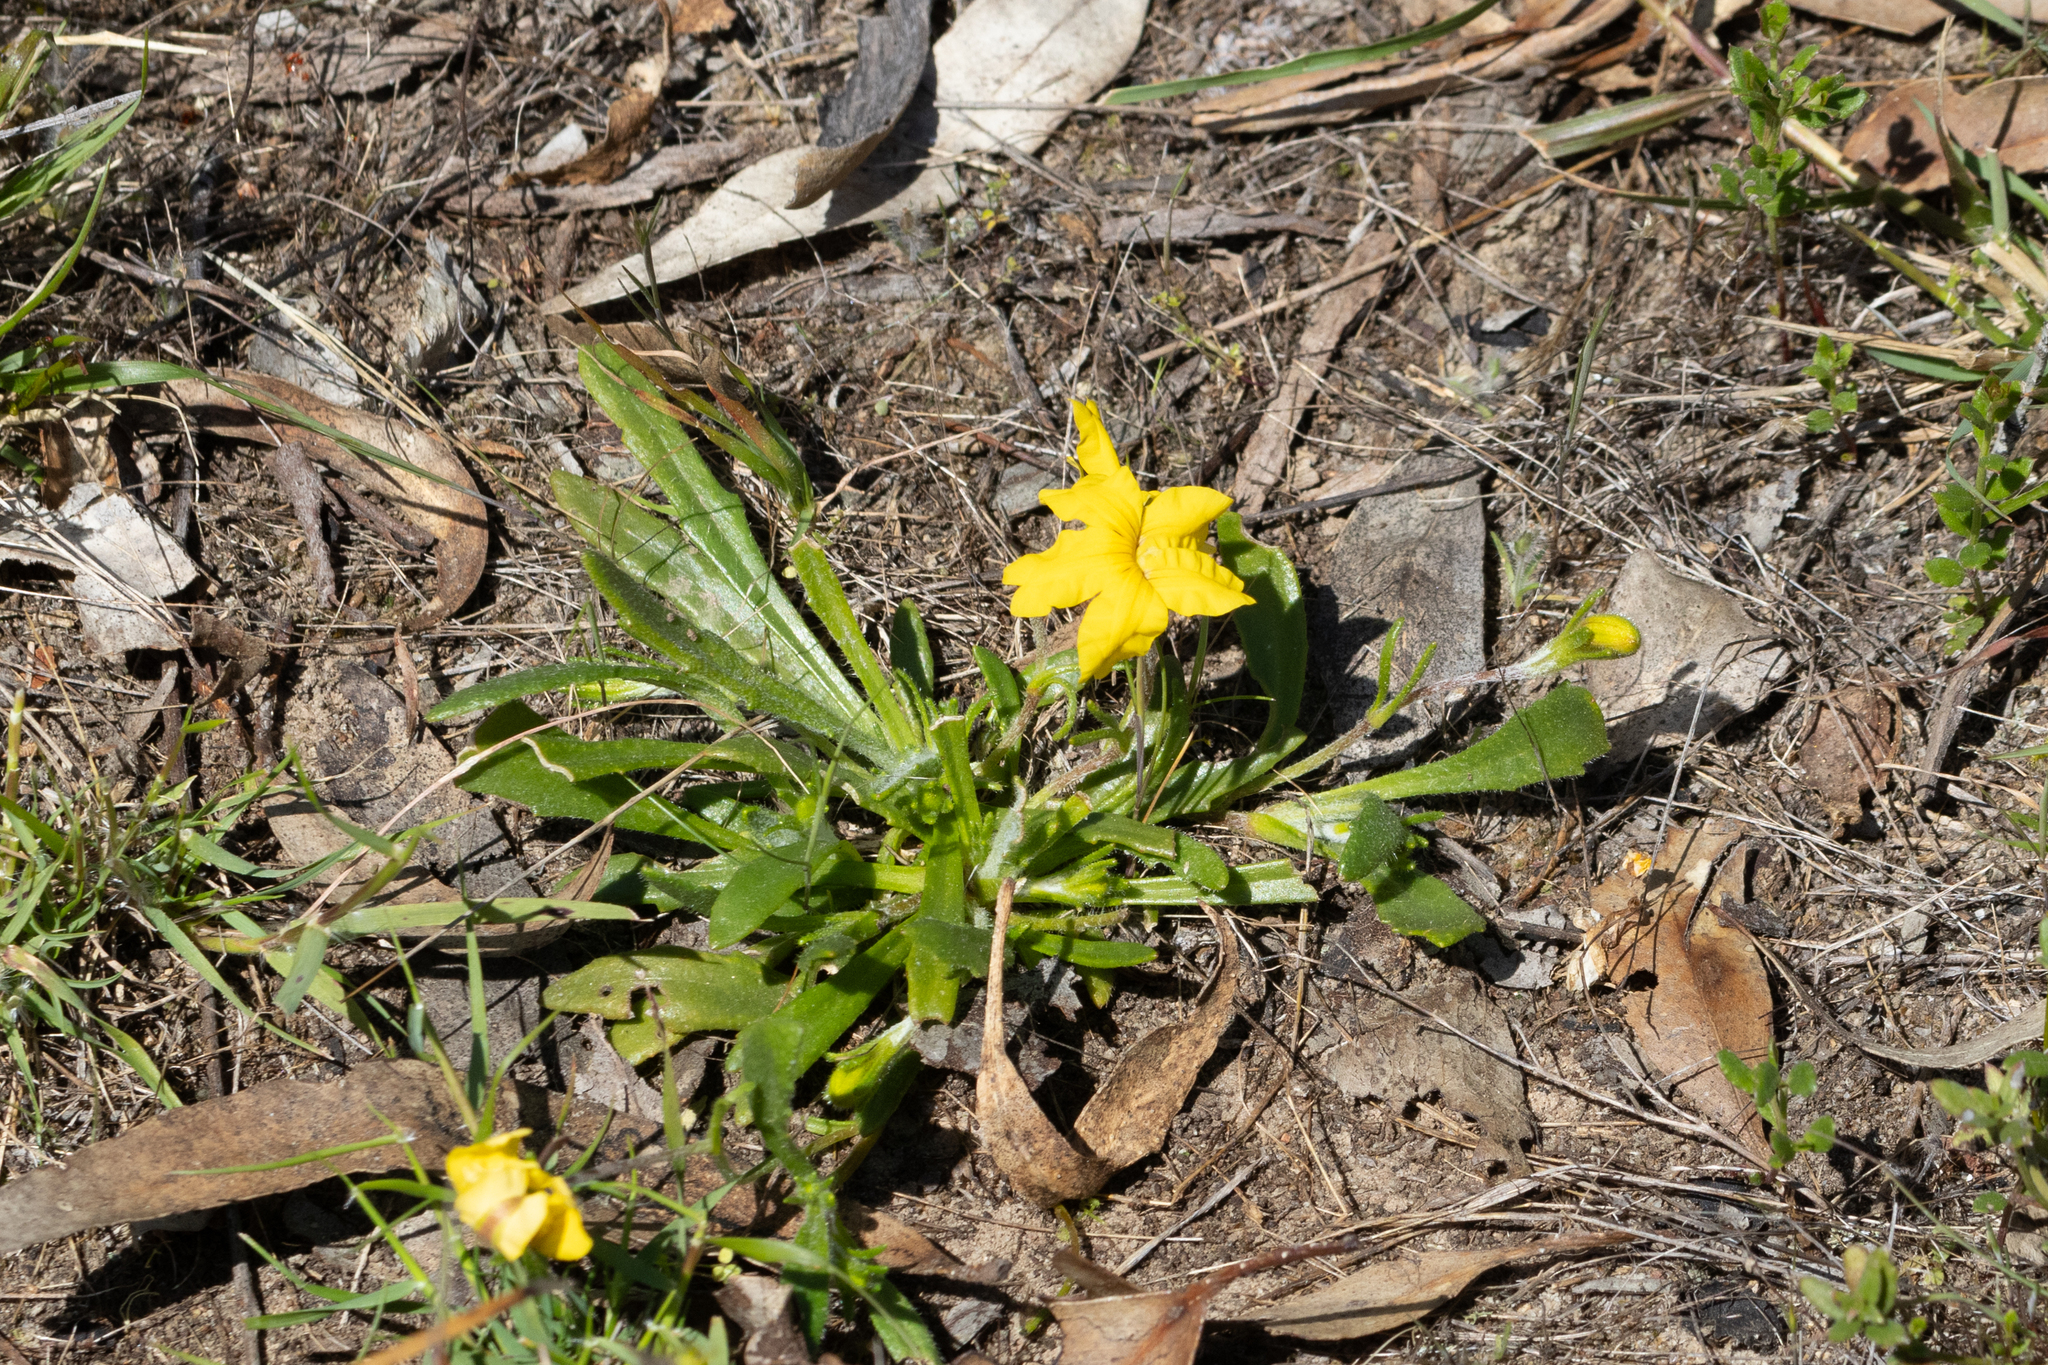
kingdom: Plantae
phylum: Tracheophyta
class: Magnoliopsida
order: Asterales
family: Goodeniaceae
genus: Goodenia
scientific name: Goodenia geniculata
